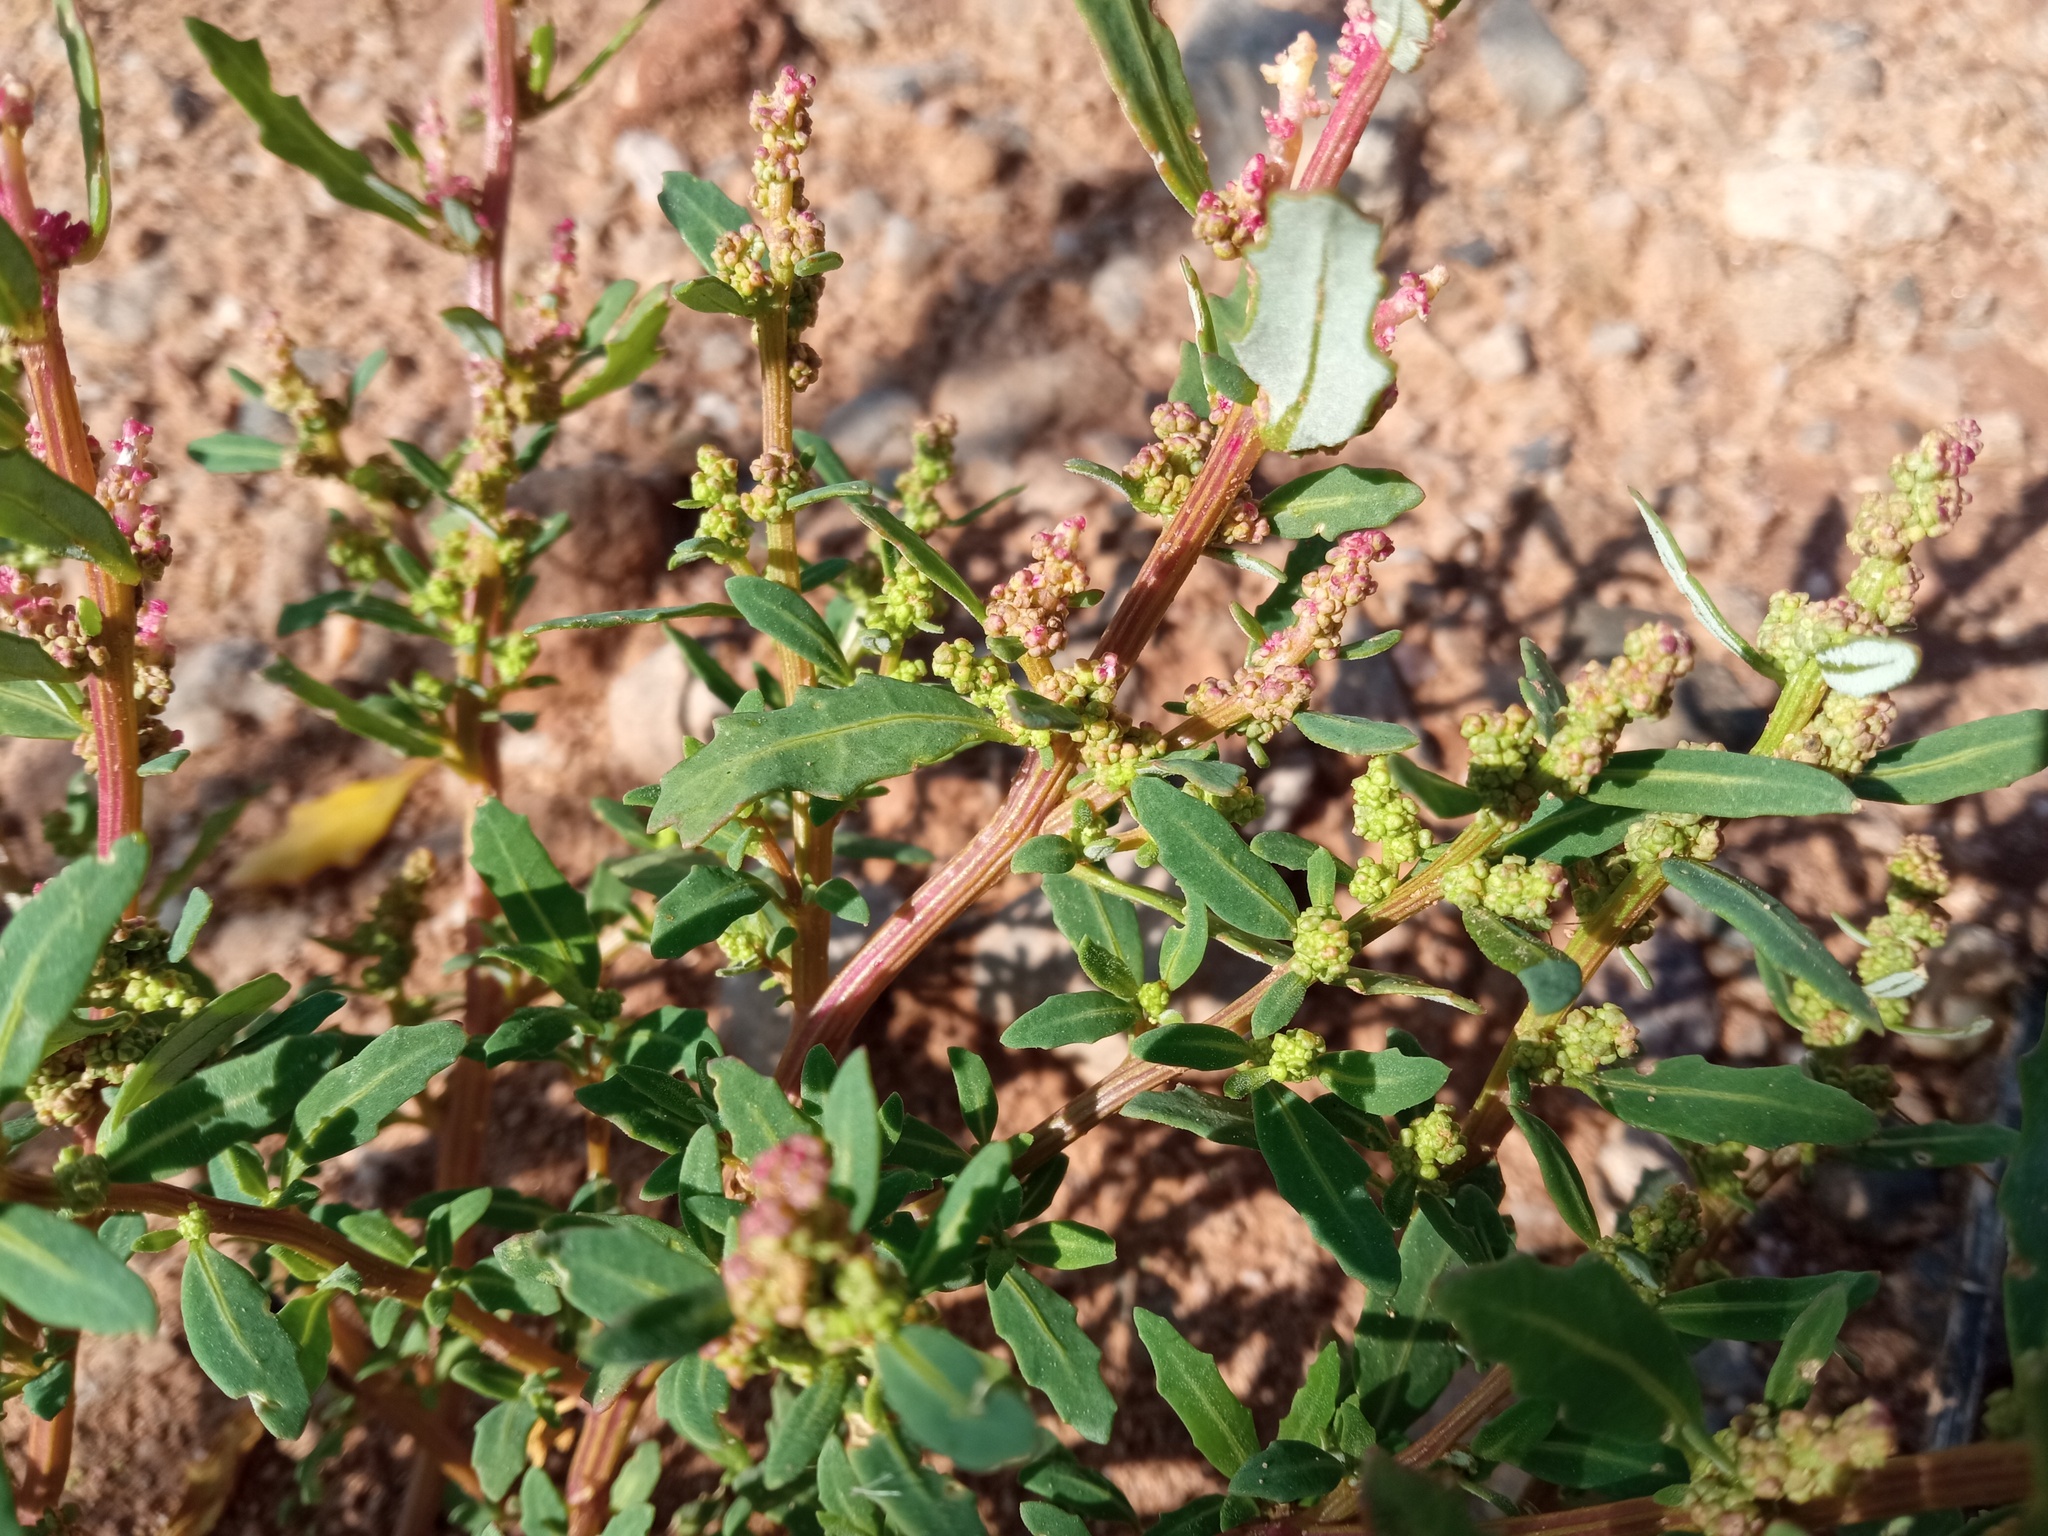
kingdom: Plantae
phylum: Tracheophyta
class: Magnoliopsida
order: Caryophyllales
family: Amaranthaceae
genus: Oxybasis
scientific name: Oxybasis glauca
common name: Glaucous goosefoot
